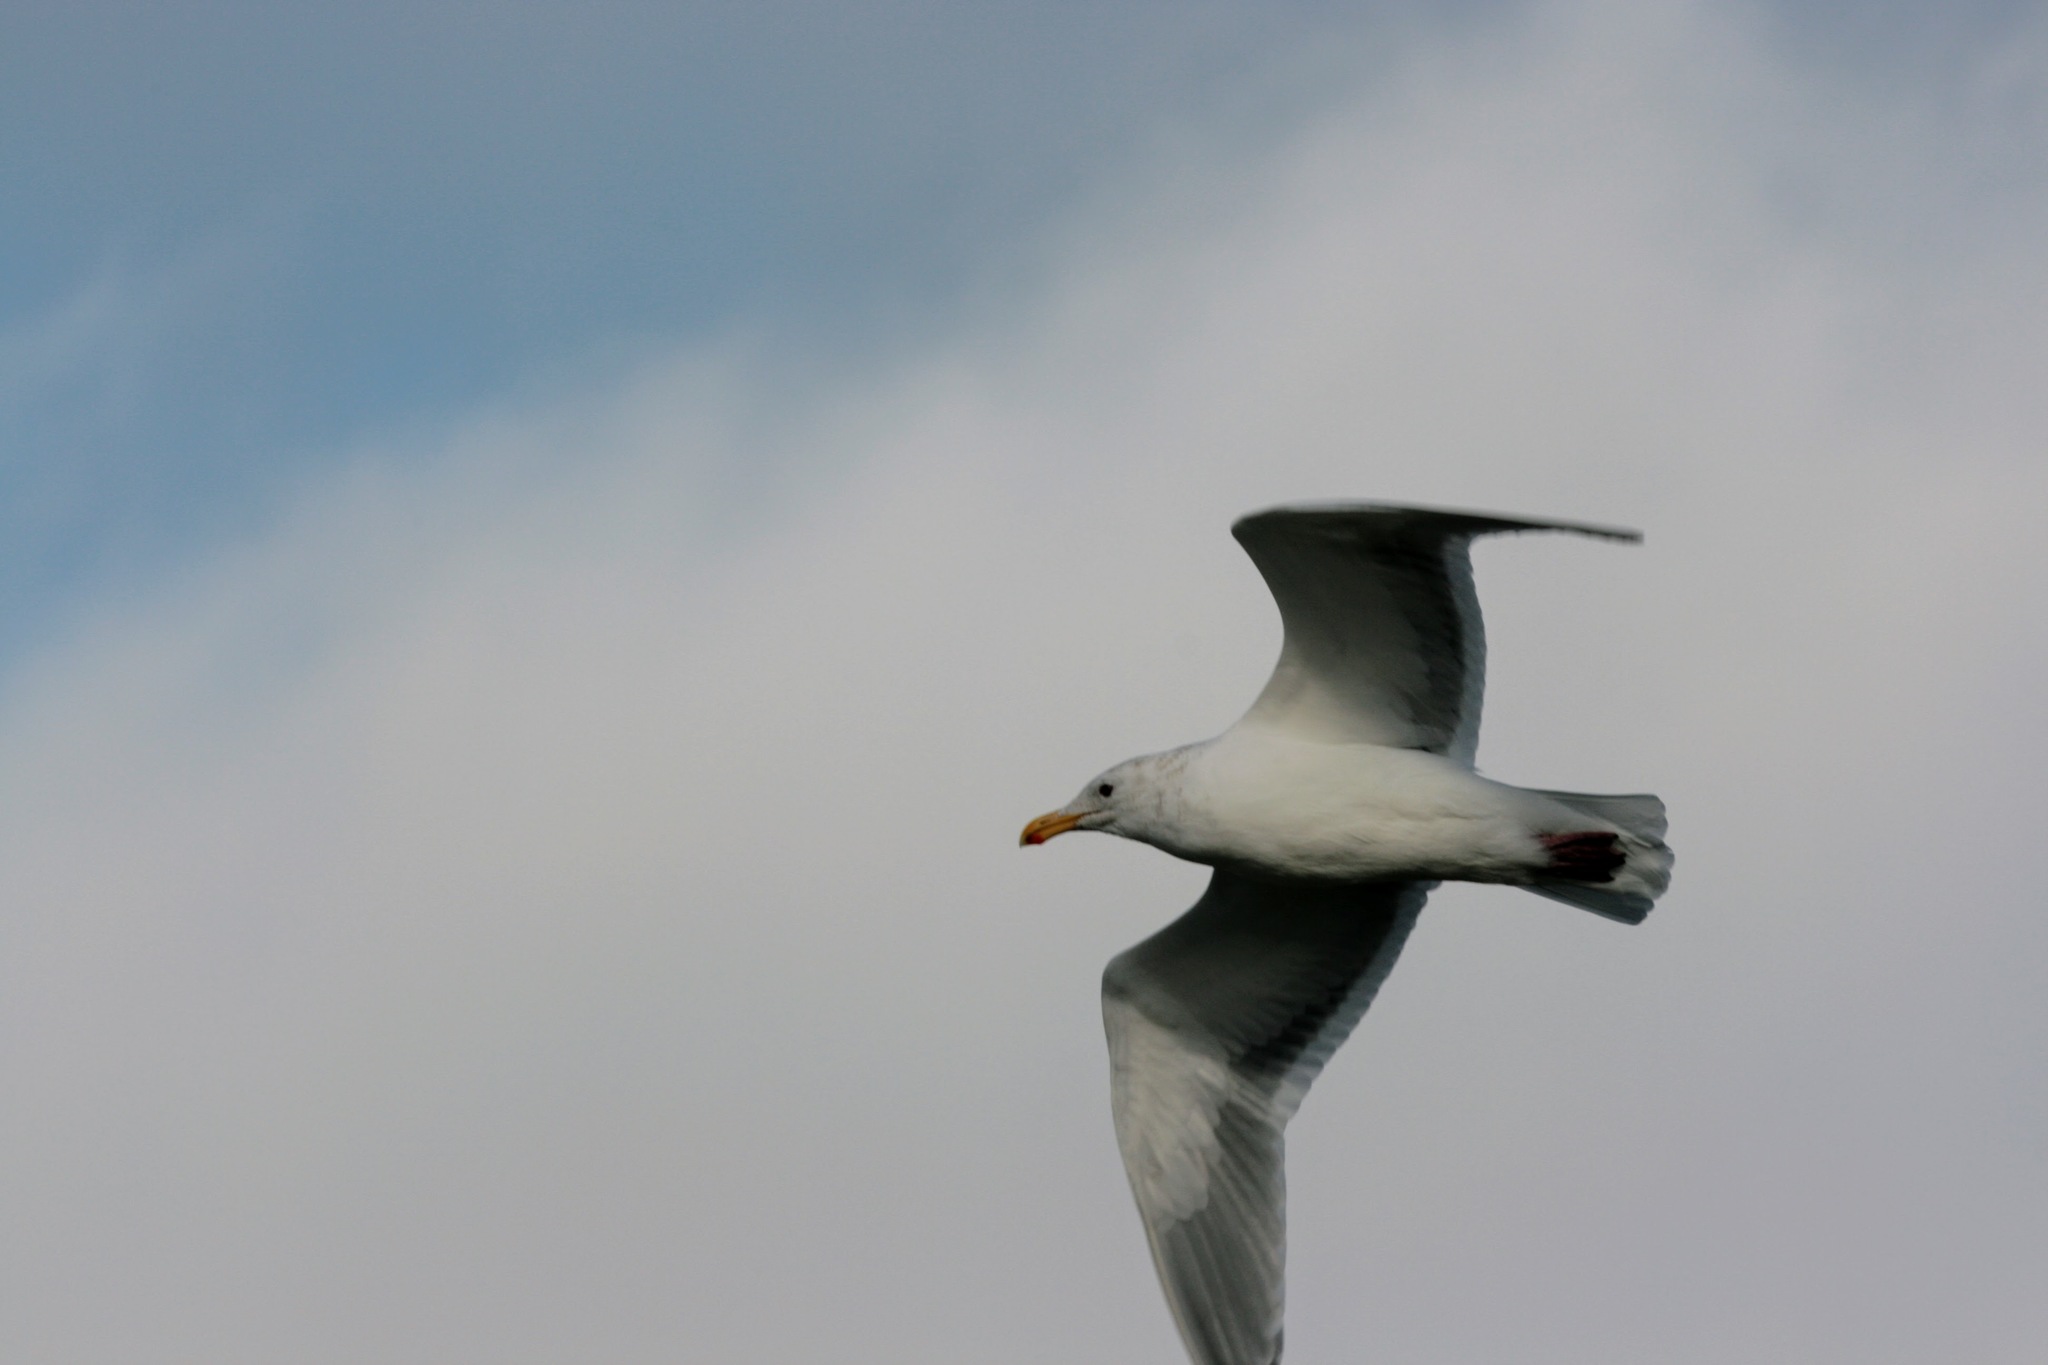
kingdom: Animalia
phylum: Chordata
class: Aves
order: Charadriiformes
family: Laridae
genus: Larus
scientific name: Larus glaucescens
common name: Glaucous-winged gull
